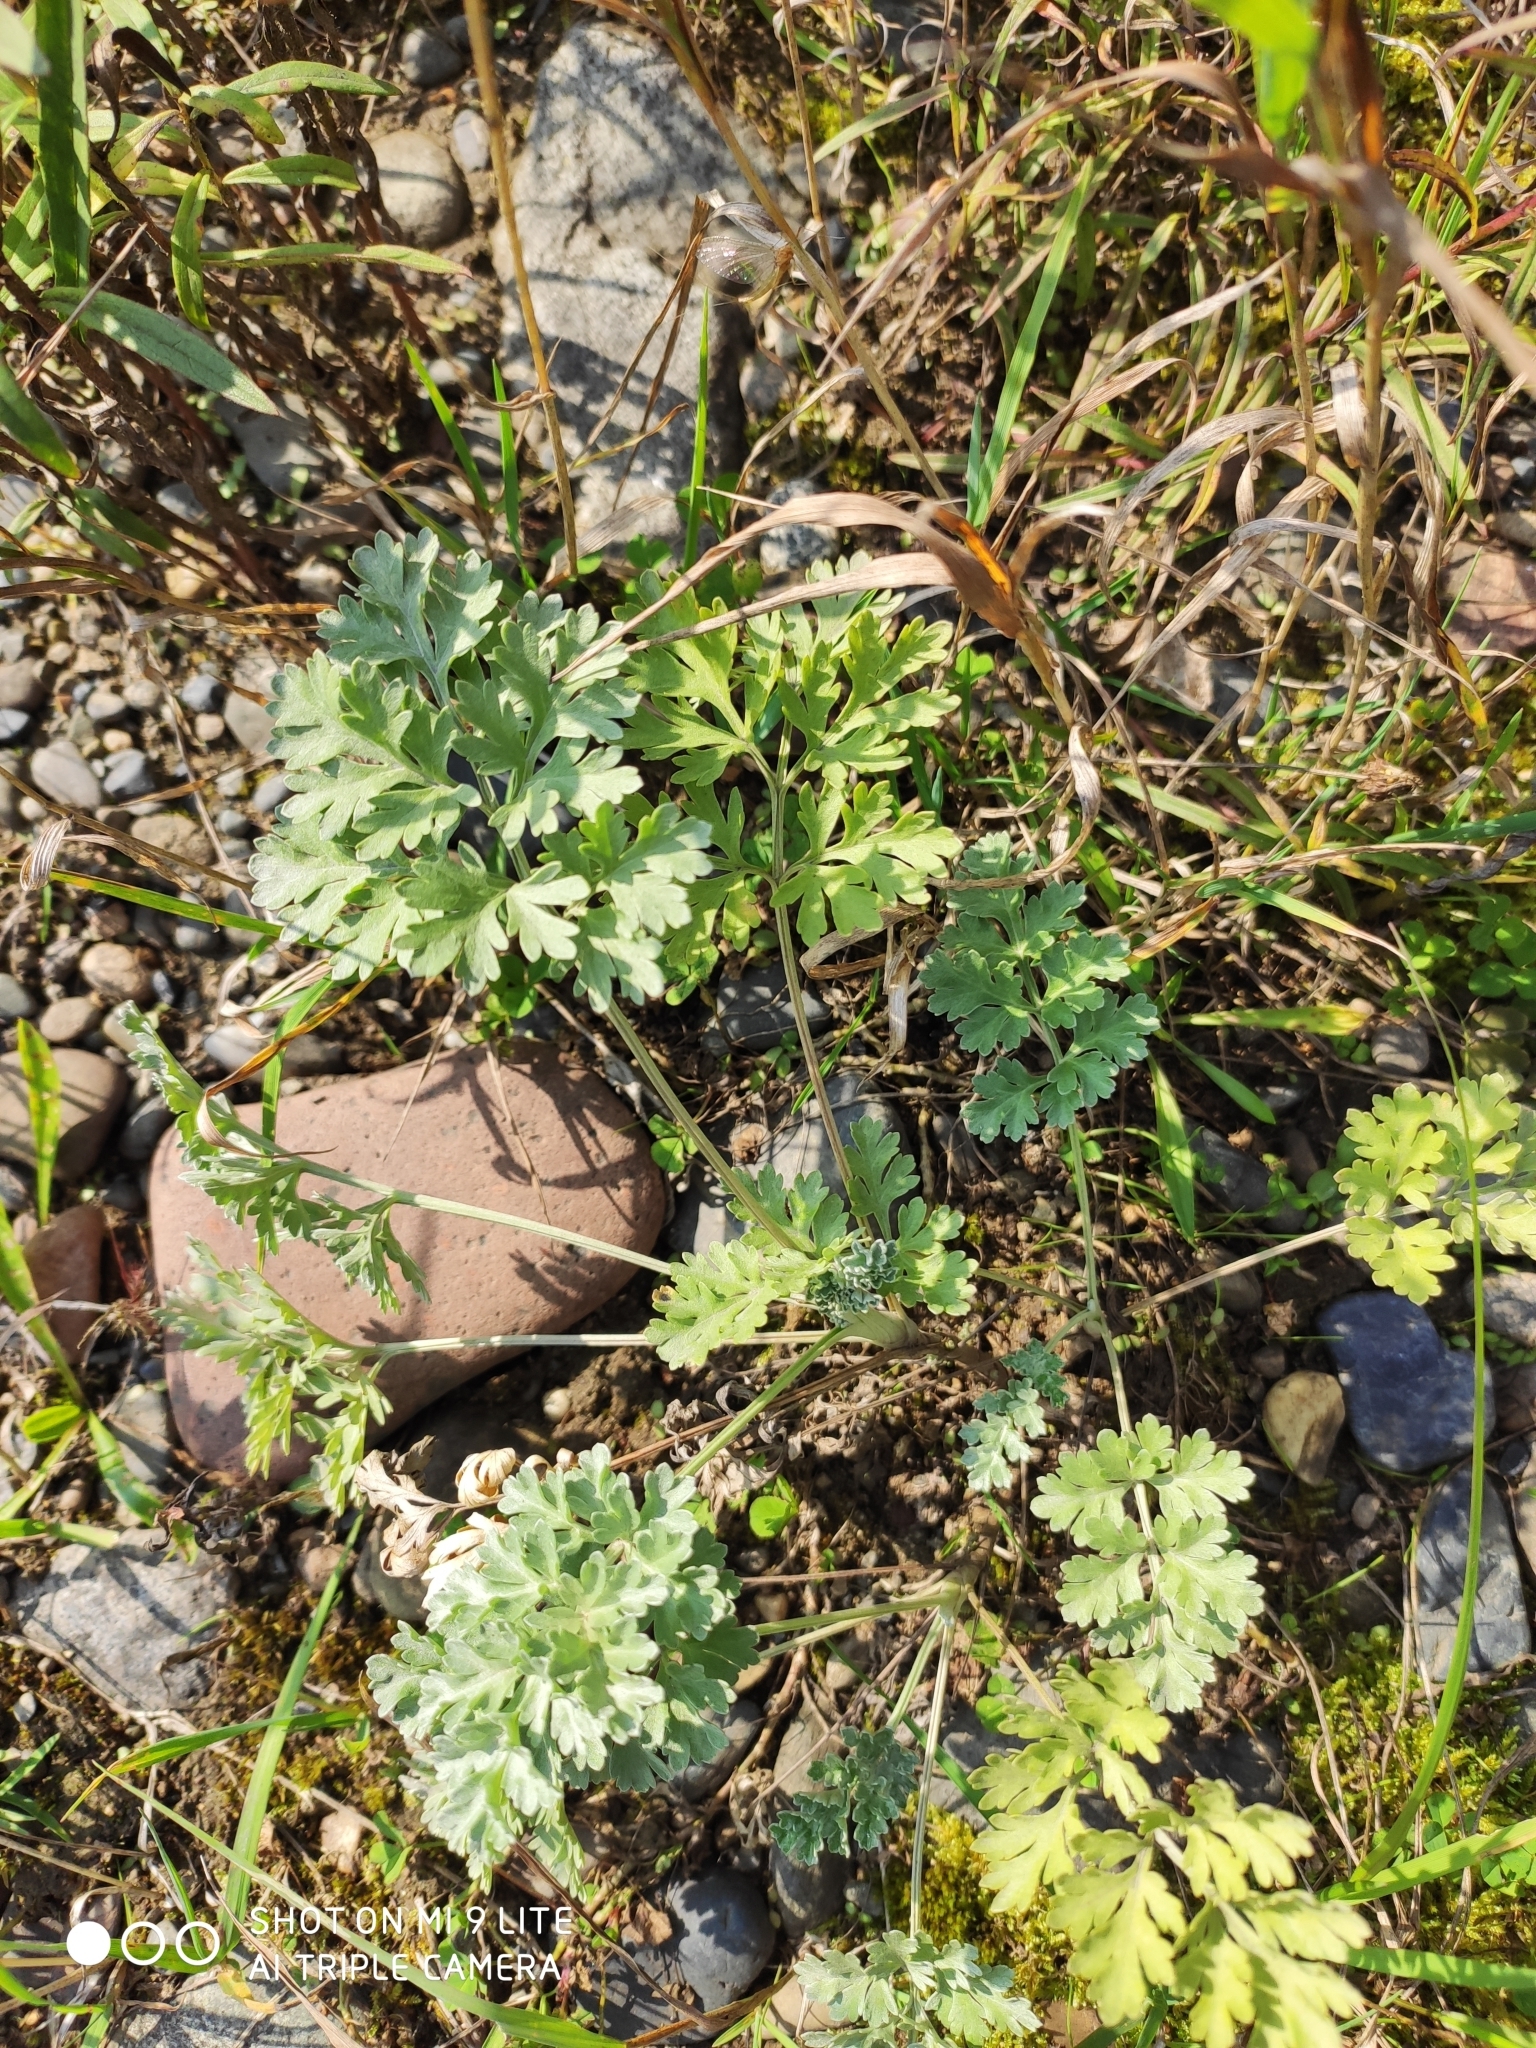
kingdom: Plantae
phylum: Tracheophyta
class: Magnoliopsida
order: Asterales
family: Asteraceae
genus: Artemisia
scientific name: Artemisia absinthium
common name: Wormwood
